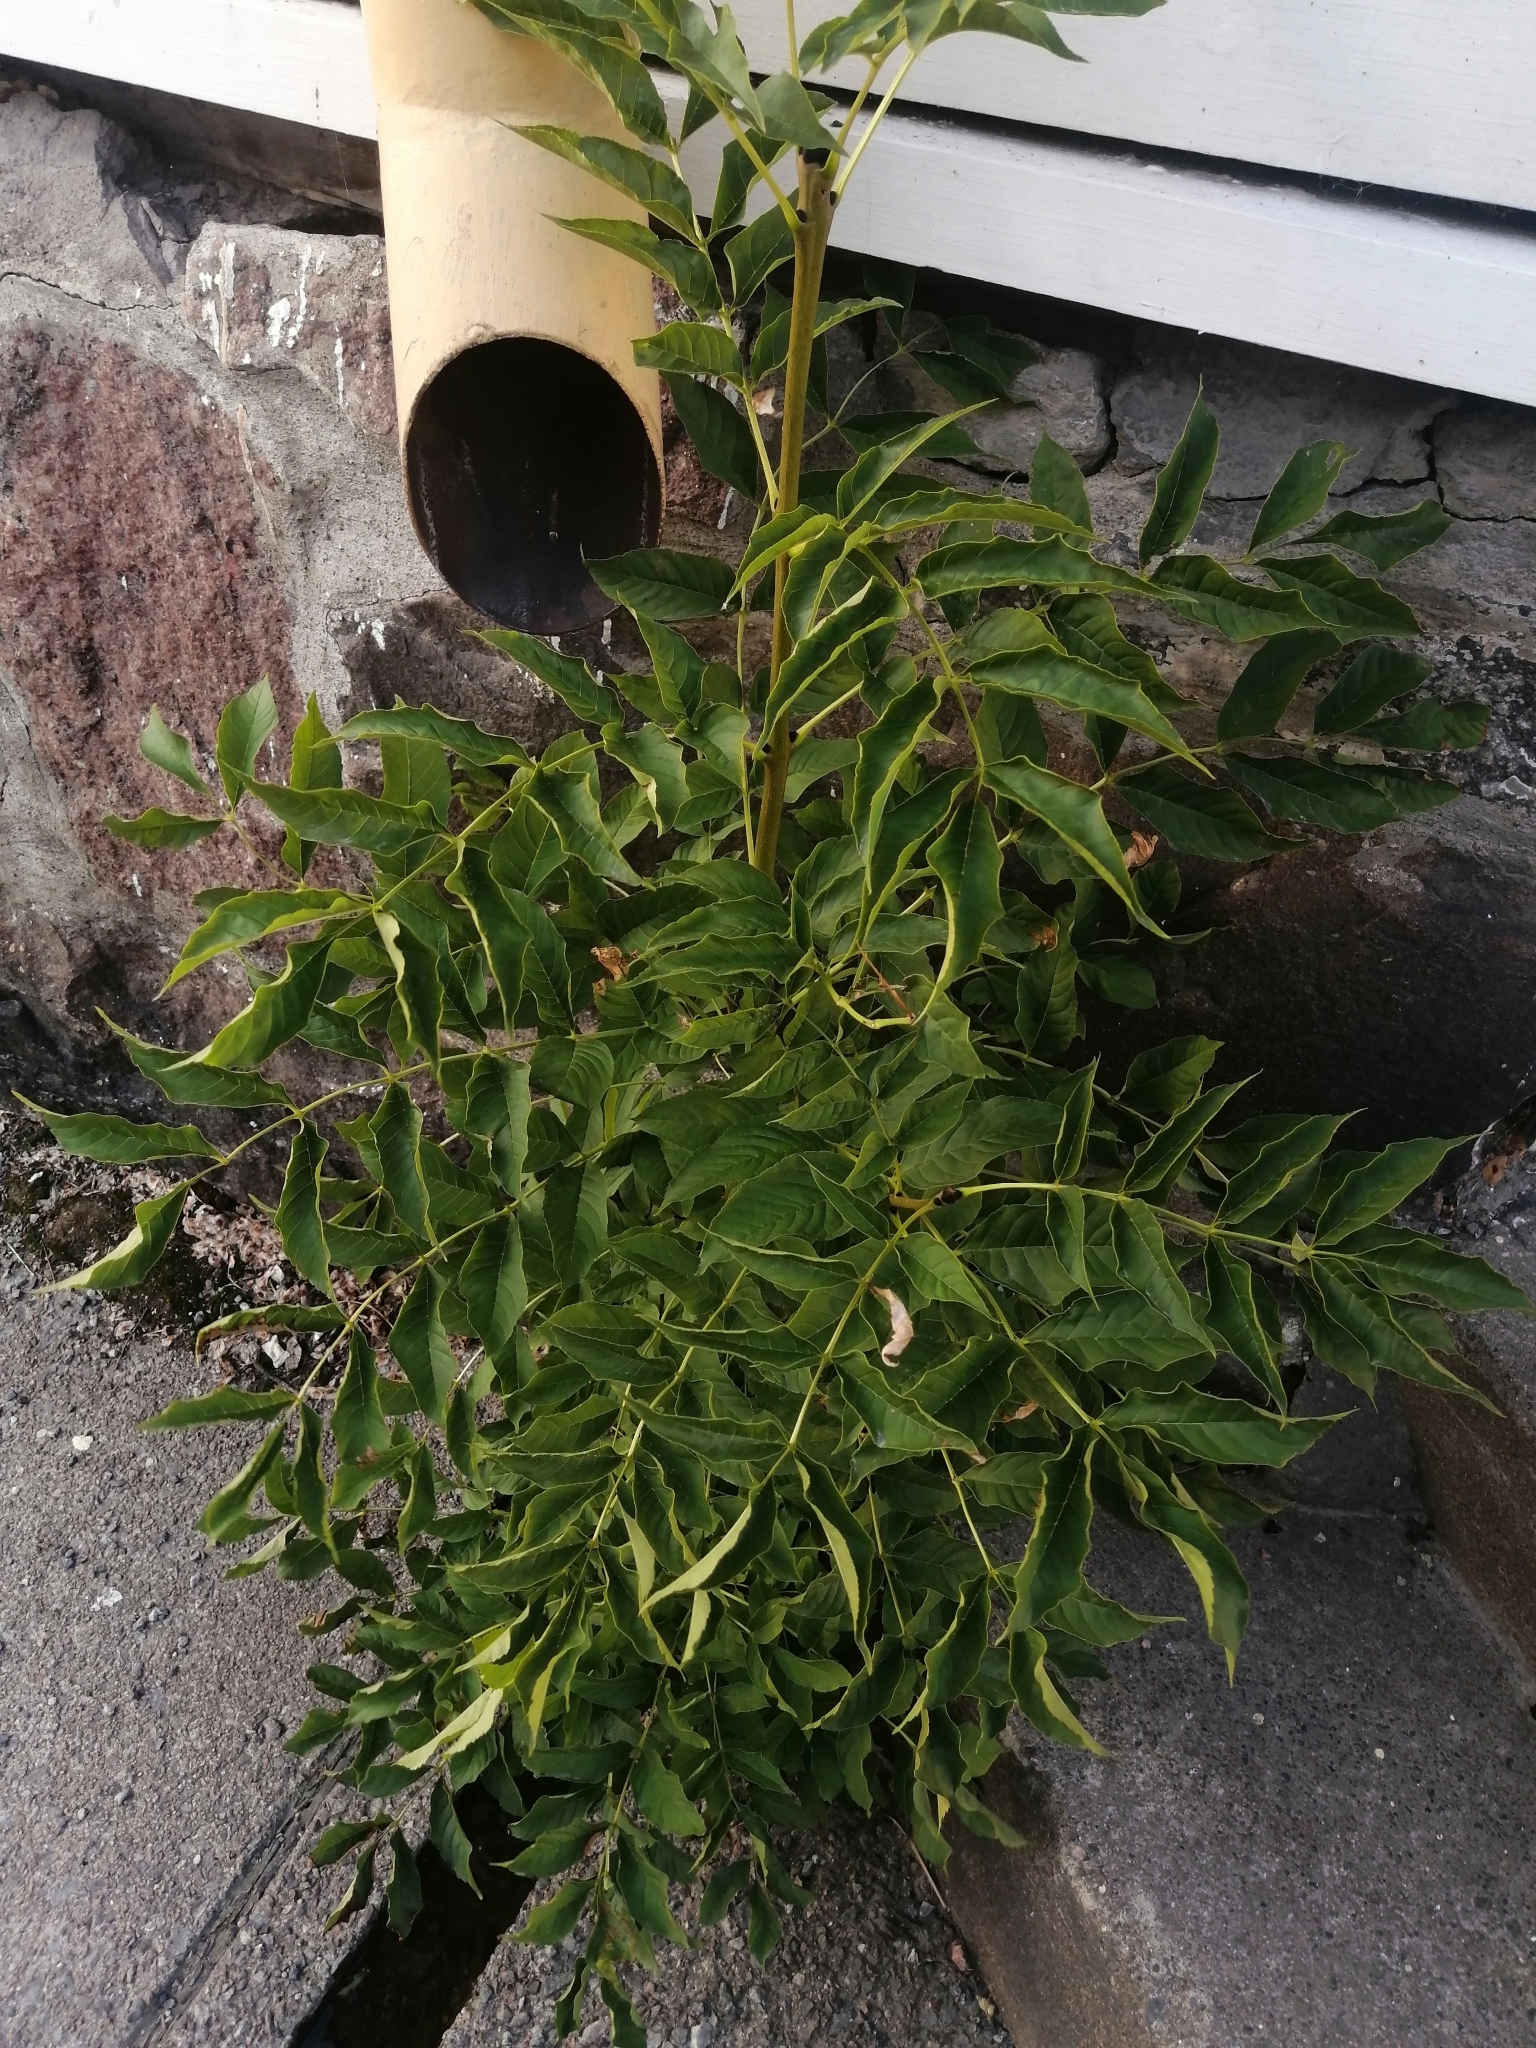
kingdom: Plantae
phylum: Tracheophyta
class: Magnoliopsida
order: Lamiales
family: Oleaceae
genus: Fraxinus
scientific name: Fraxinus excelsior
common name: European ash
